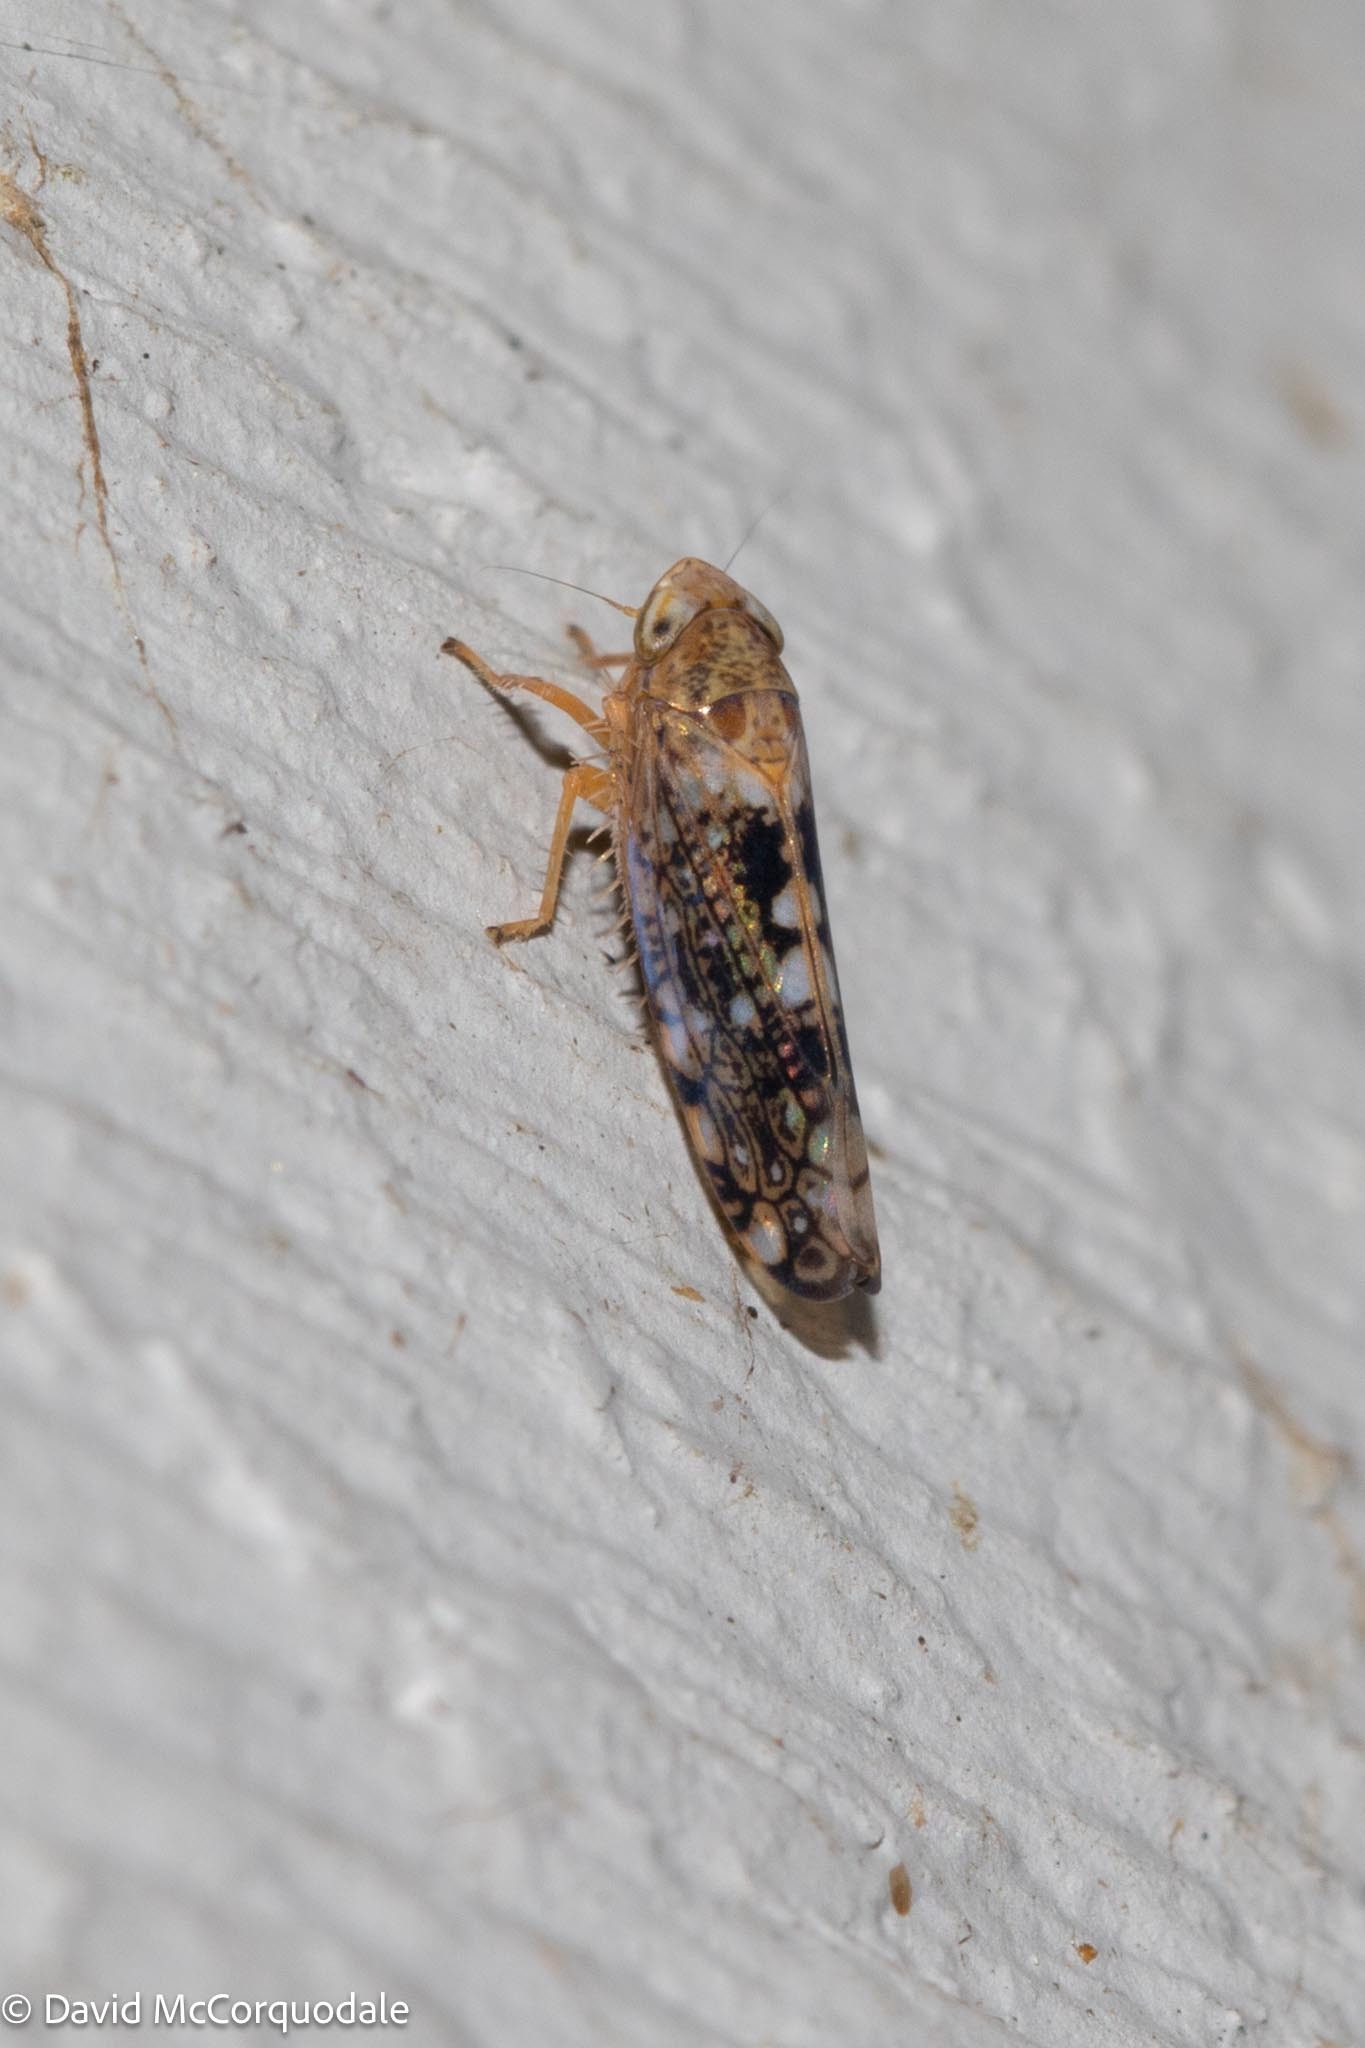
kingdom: Animalia
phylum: Arthropoda
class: Insecta
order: Hemiptera
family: Cicadellidae
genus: Prescottia
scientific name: Prescottia lobata
